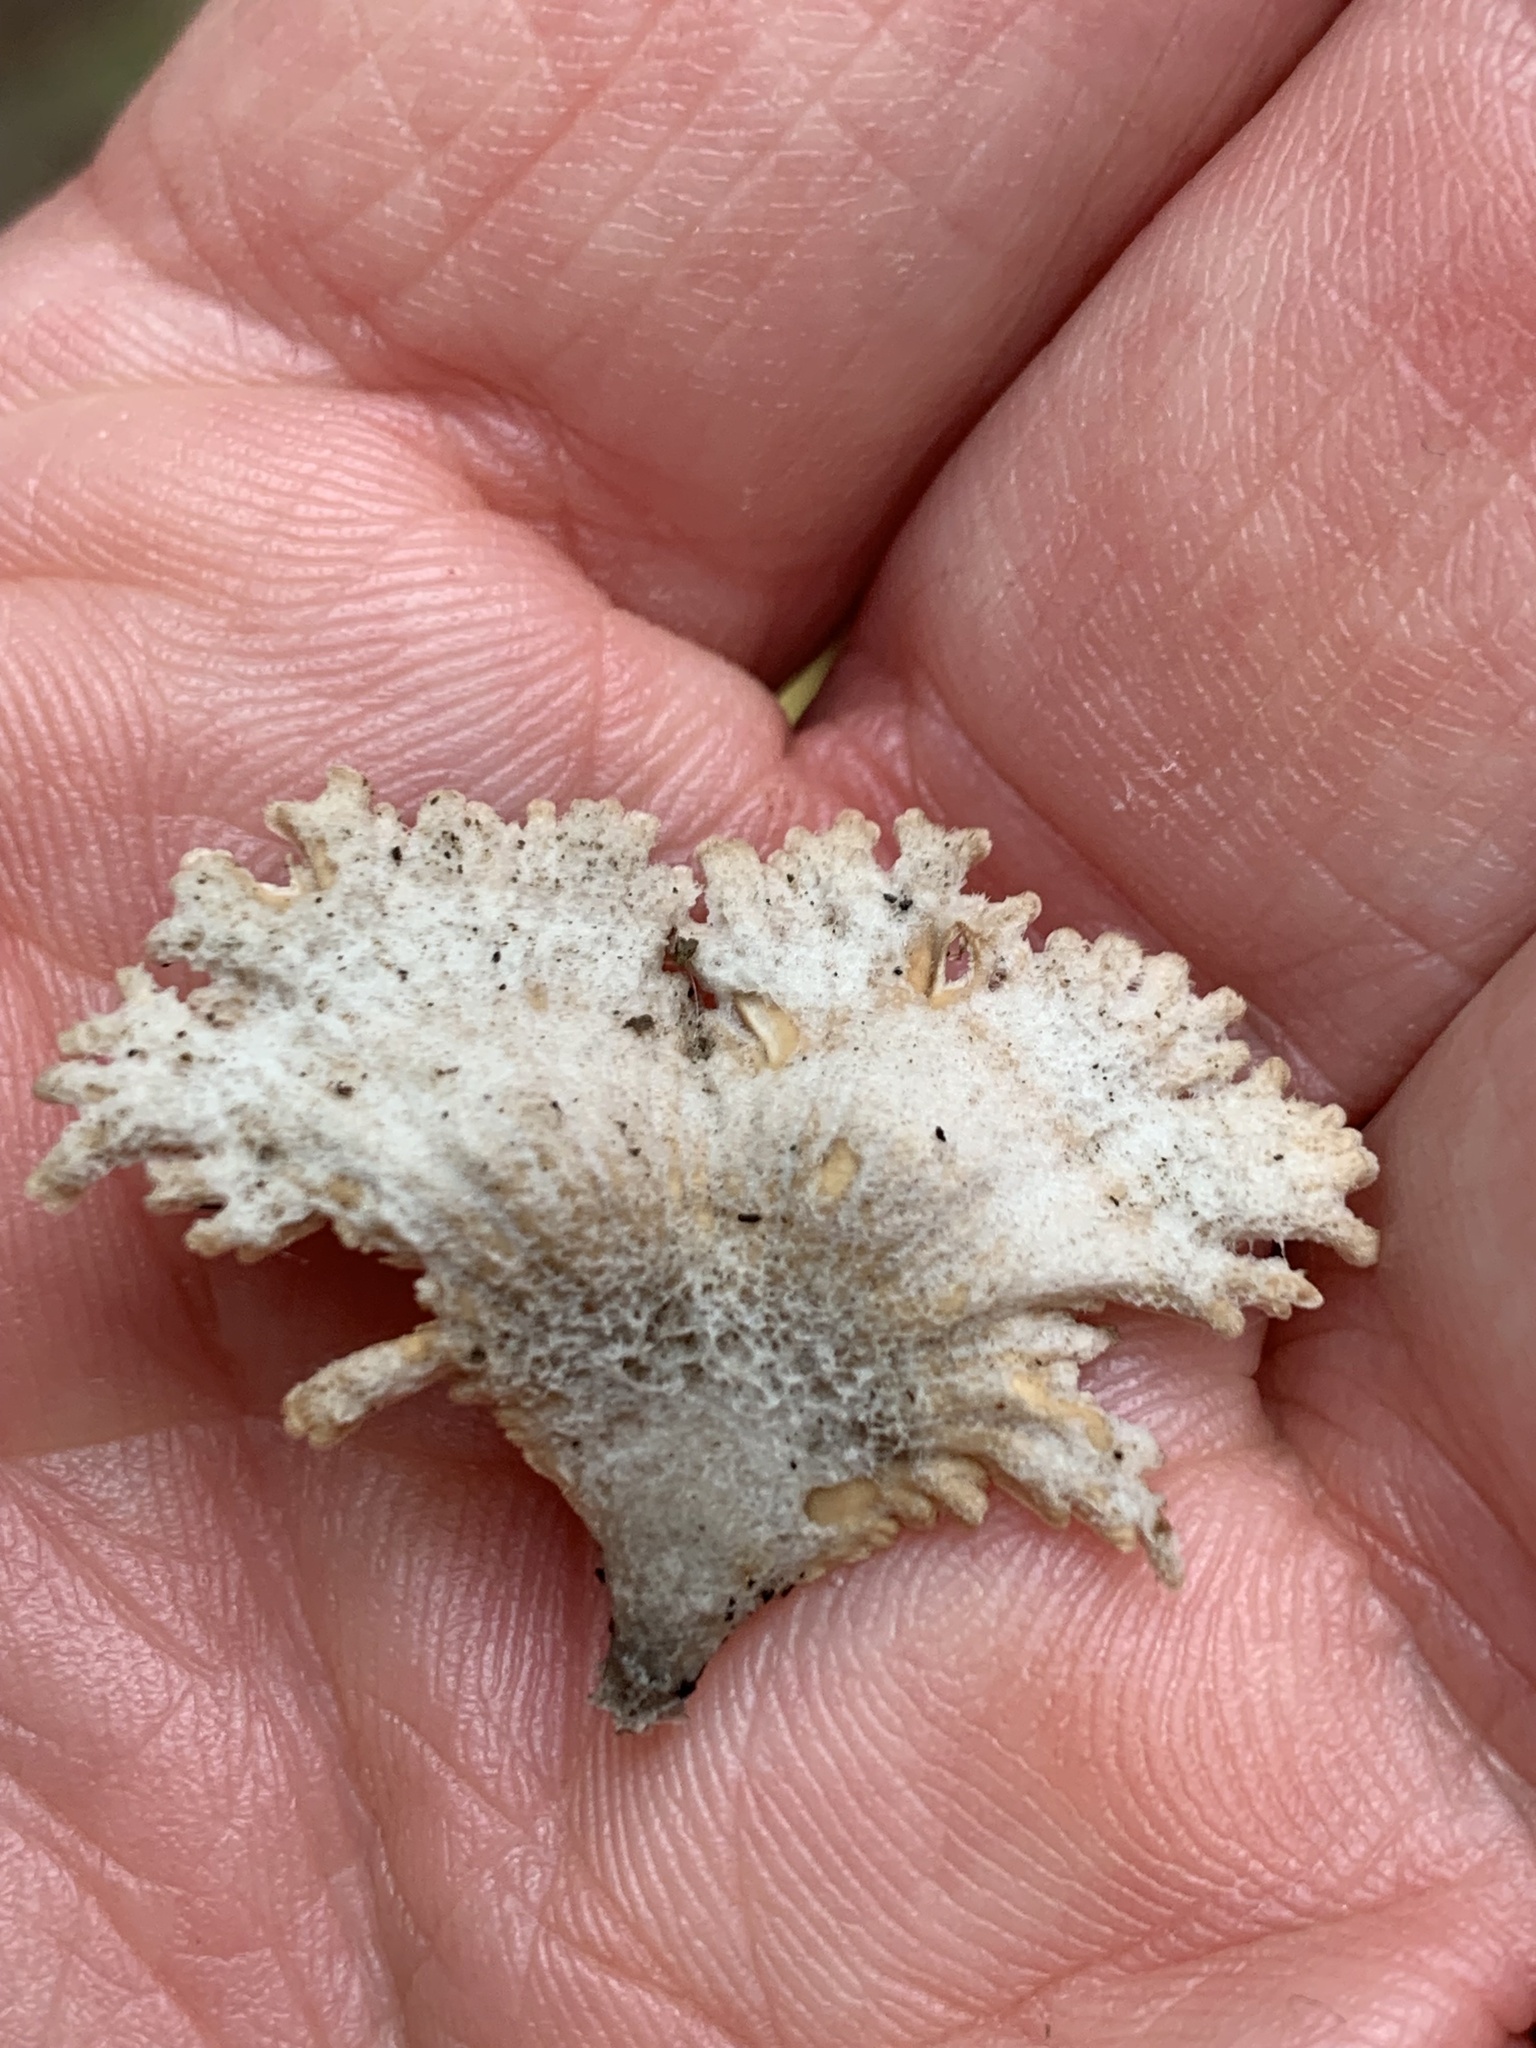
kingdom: Fungi
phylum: Basidiomycota
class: Agaricomycetes
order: Agaricales
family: Schizophyllaceae
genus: Schizophyllum
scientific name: Schizophyllum commune
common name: Common porecrust
